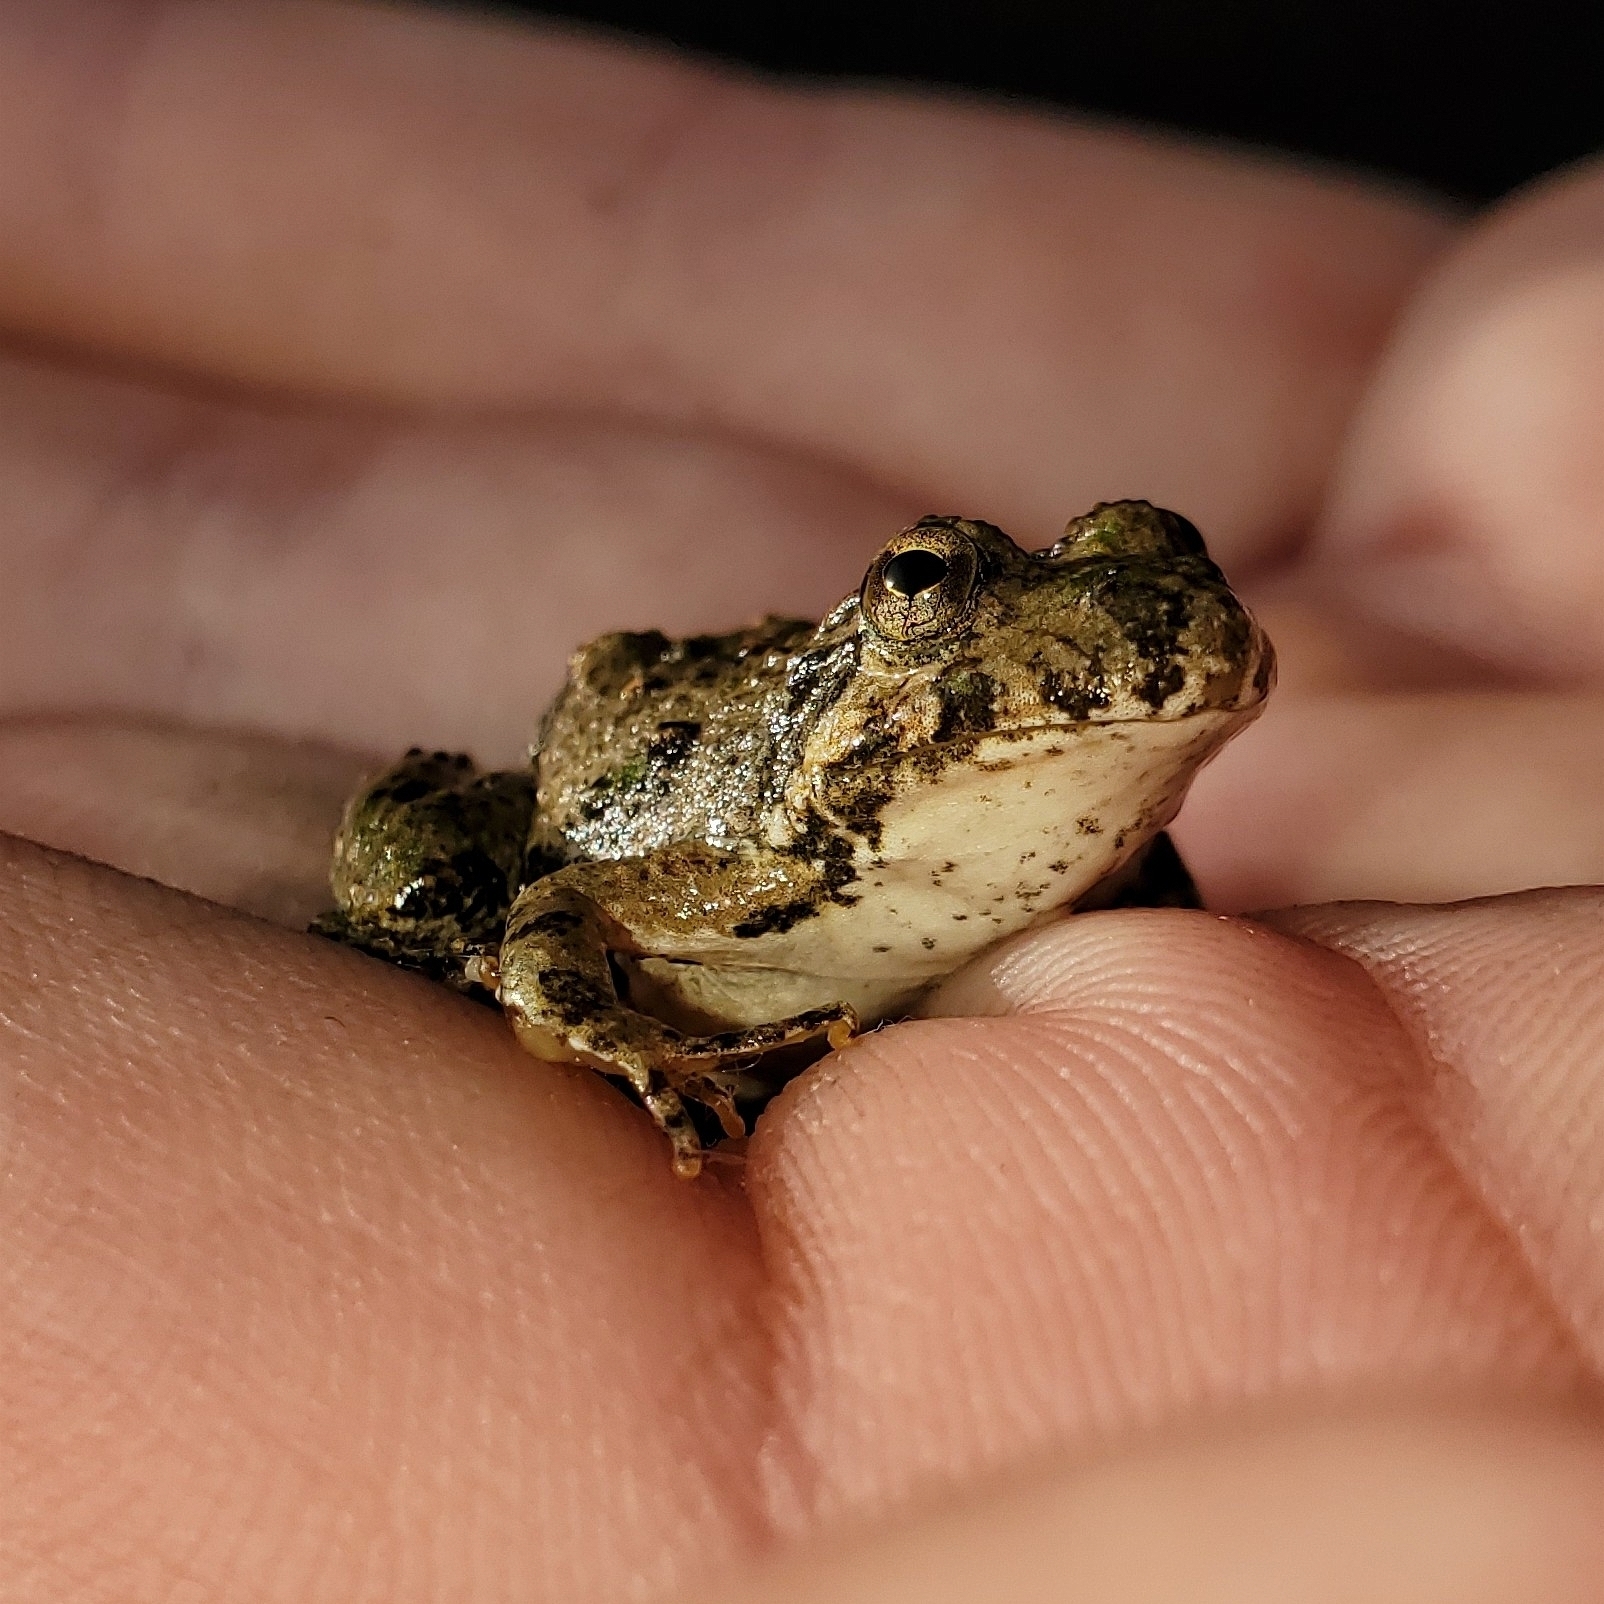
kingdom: Animalia
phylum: Chordata
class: Amphibia
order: Anura
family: Hylidae
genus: Acris
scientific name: Acris blanchardi
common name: Blanchard's cricket frog
